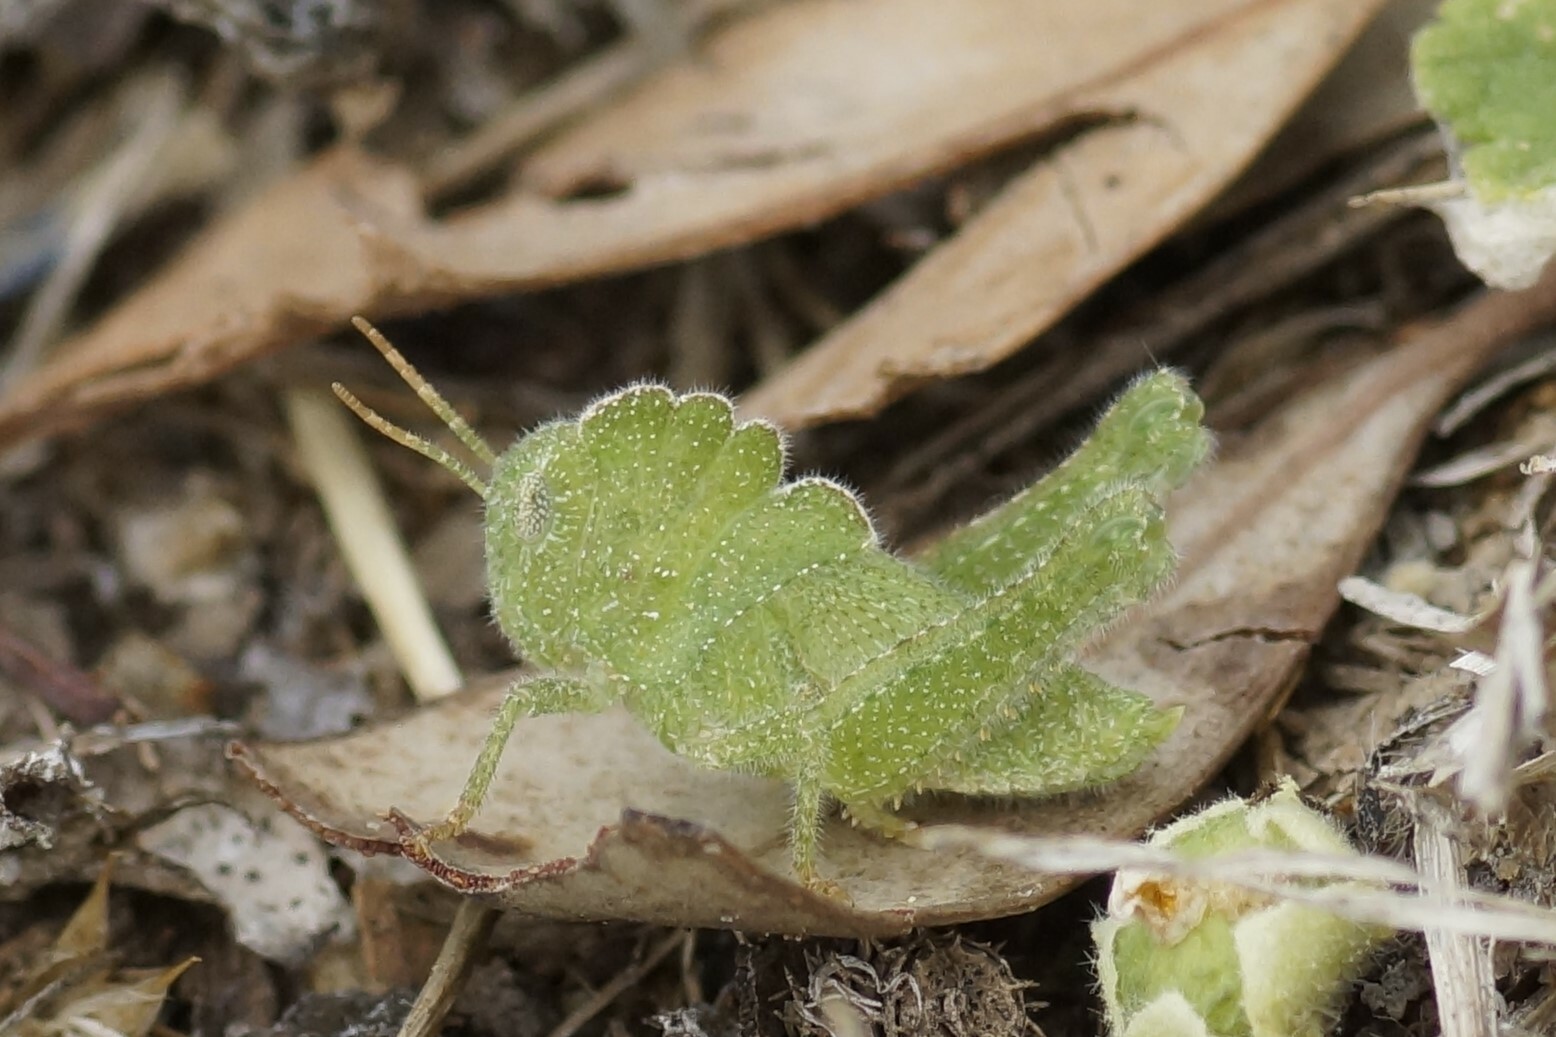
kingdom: Animalia
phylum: Arthropoda
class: Insecta
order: Orthoptera
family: Acrididae
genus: Ecphantus
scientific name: Ecphantus quadrilobus
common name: Crested tooth grinder
